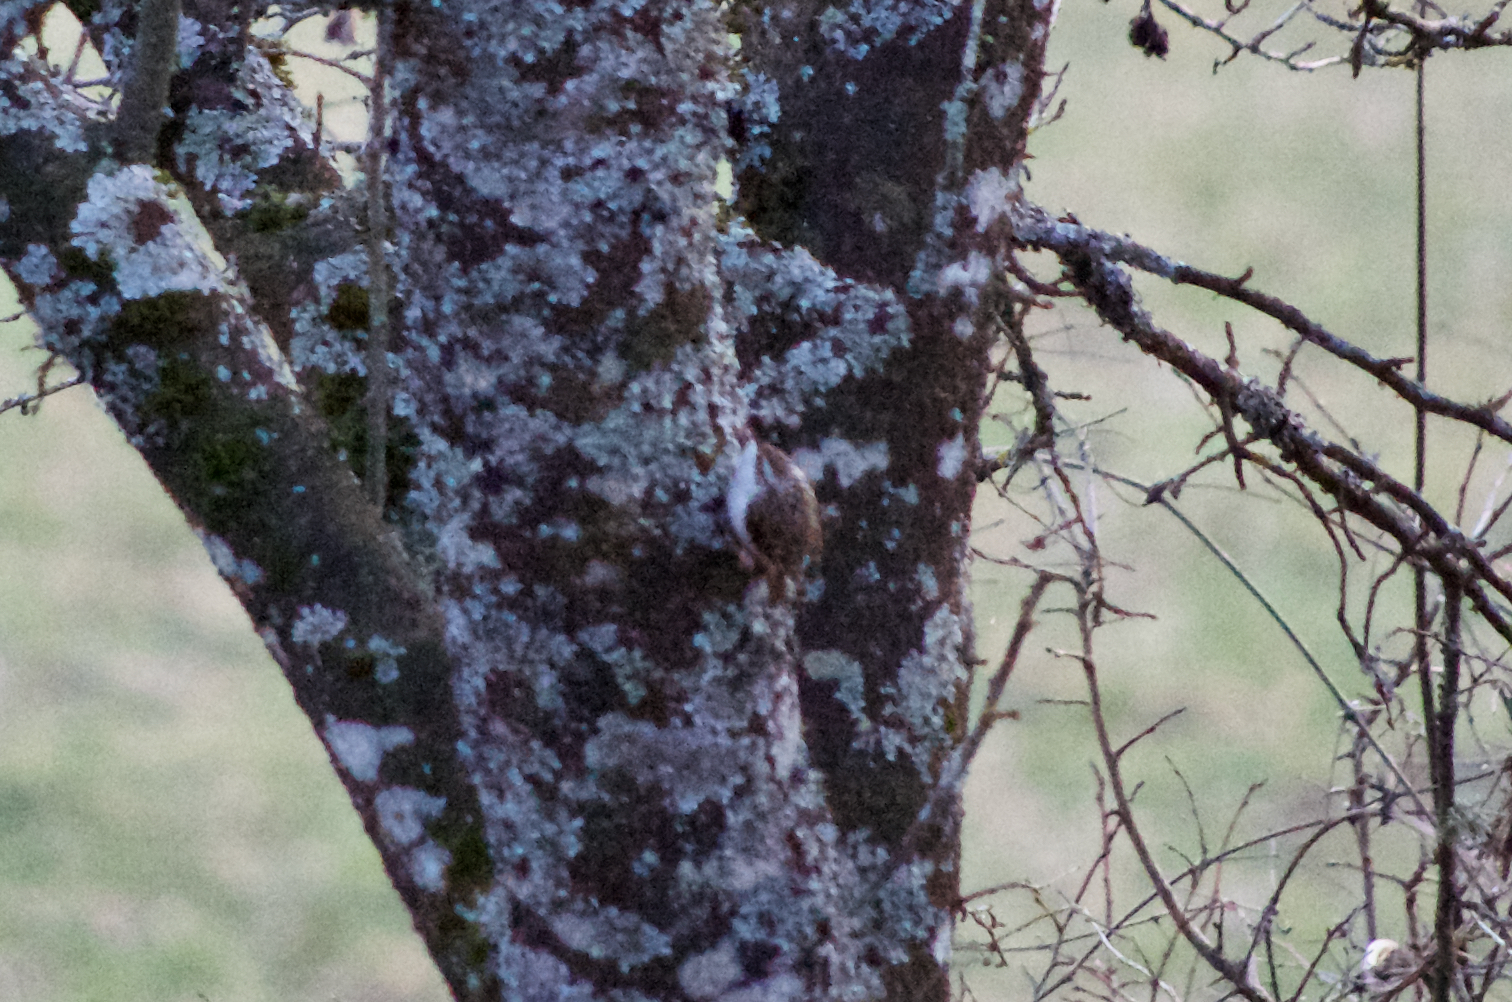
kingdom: Animalia
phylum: Chordata
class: Aves
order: Passeriformes
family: Certhiidae
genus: Certhia
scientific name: Certhia familiaris
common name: Eurasian treecreeper
